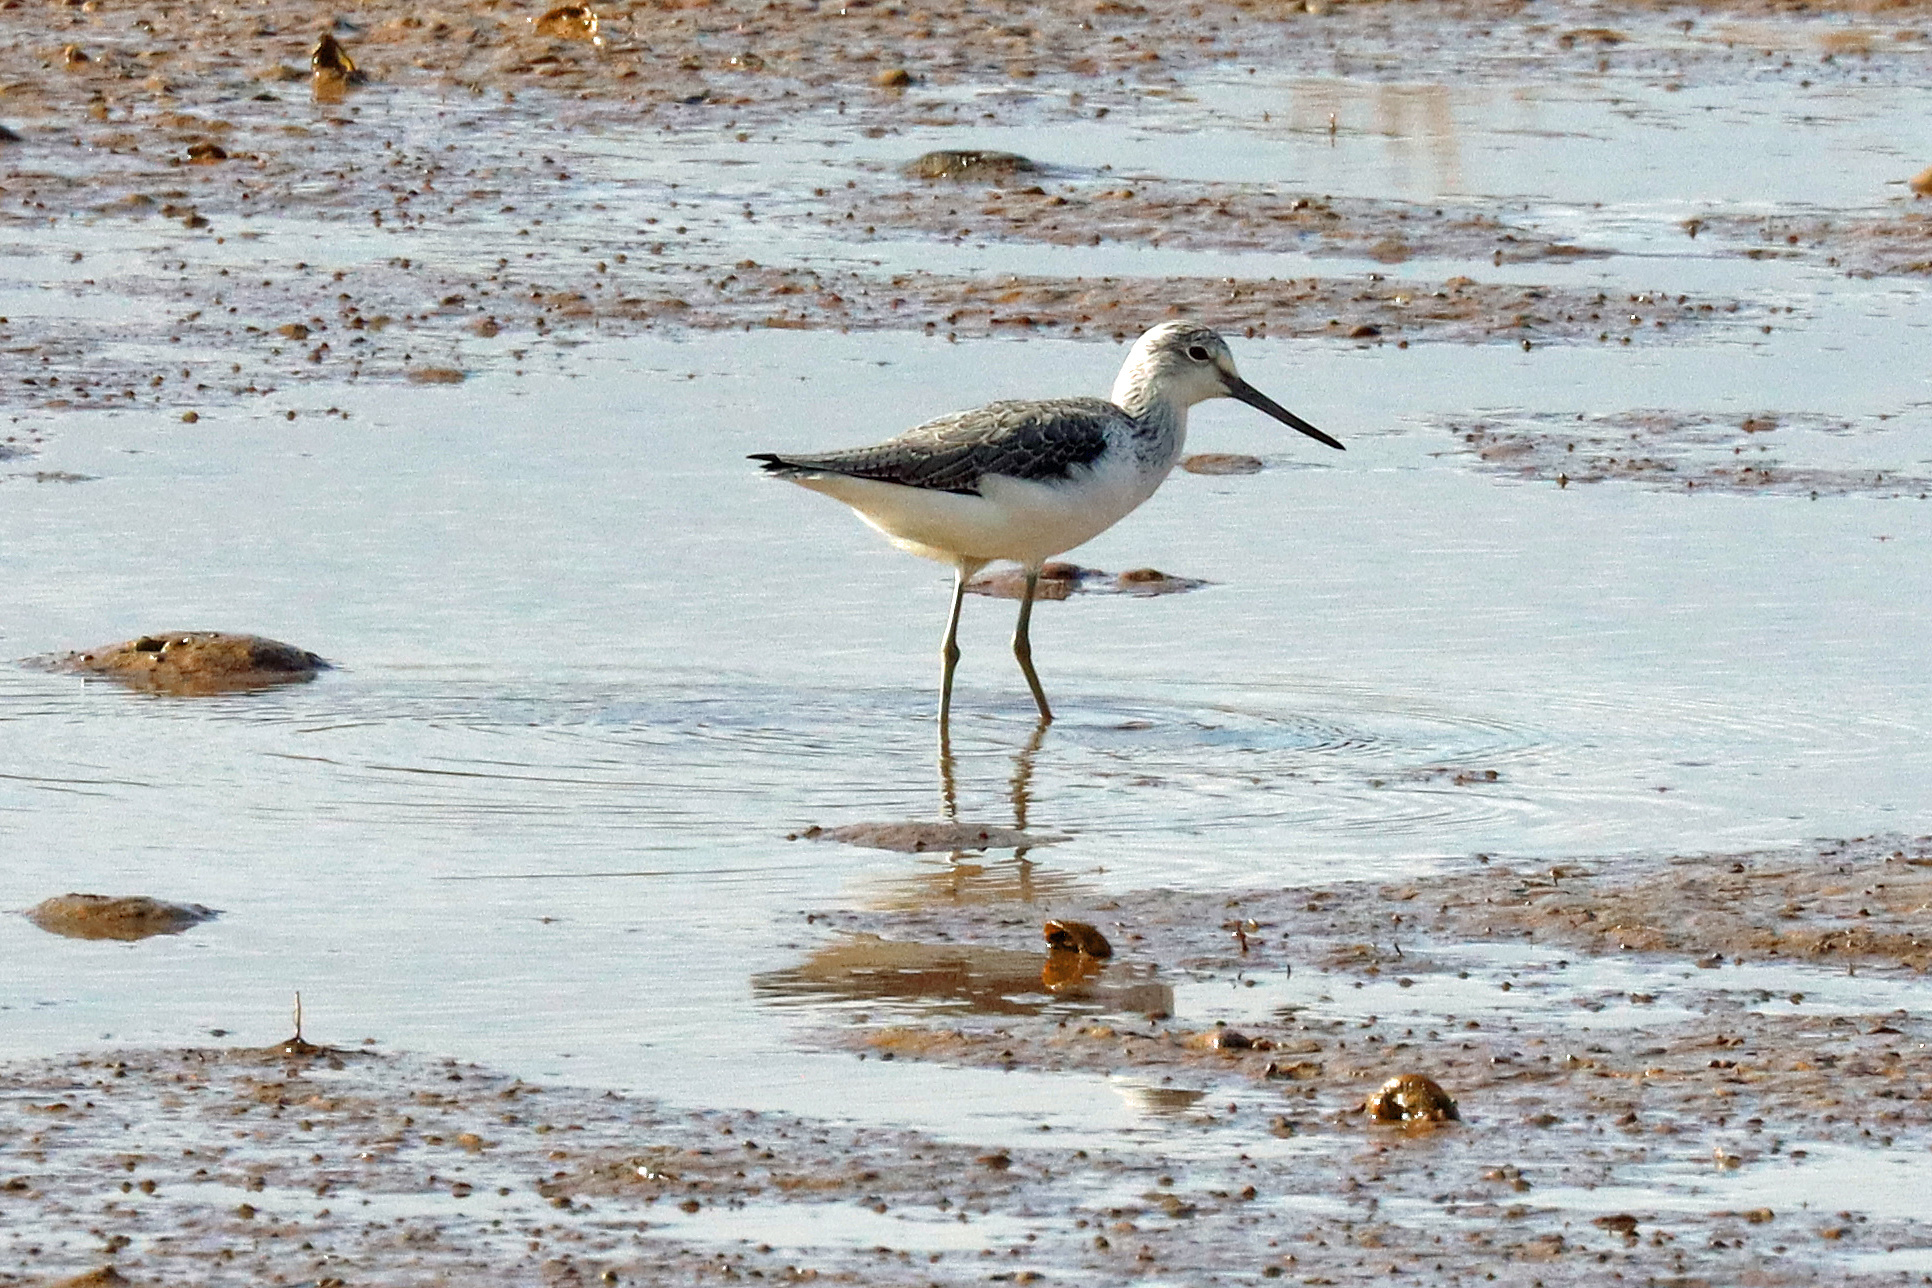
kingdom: Animalia
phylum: Chordata
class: Aves
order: Charadriiformes
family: Scolopacidae
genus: Tringa
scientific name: Tringa nebularia
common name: Common greenshank
